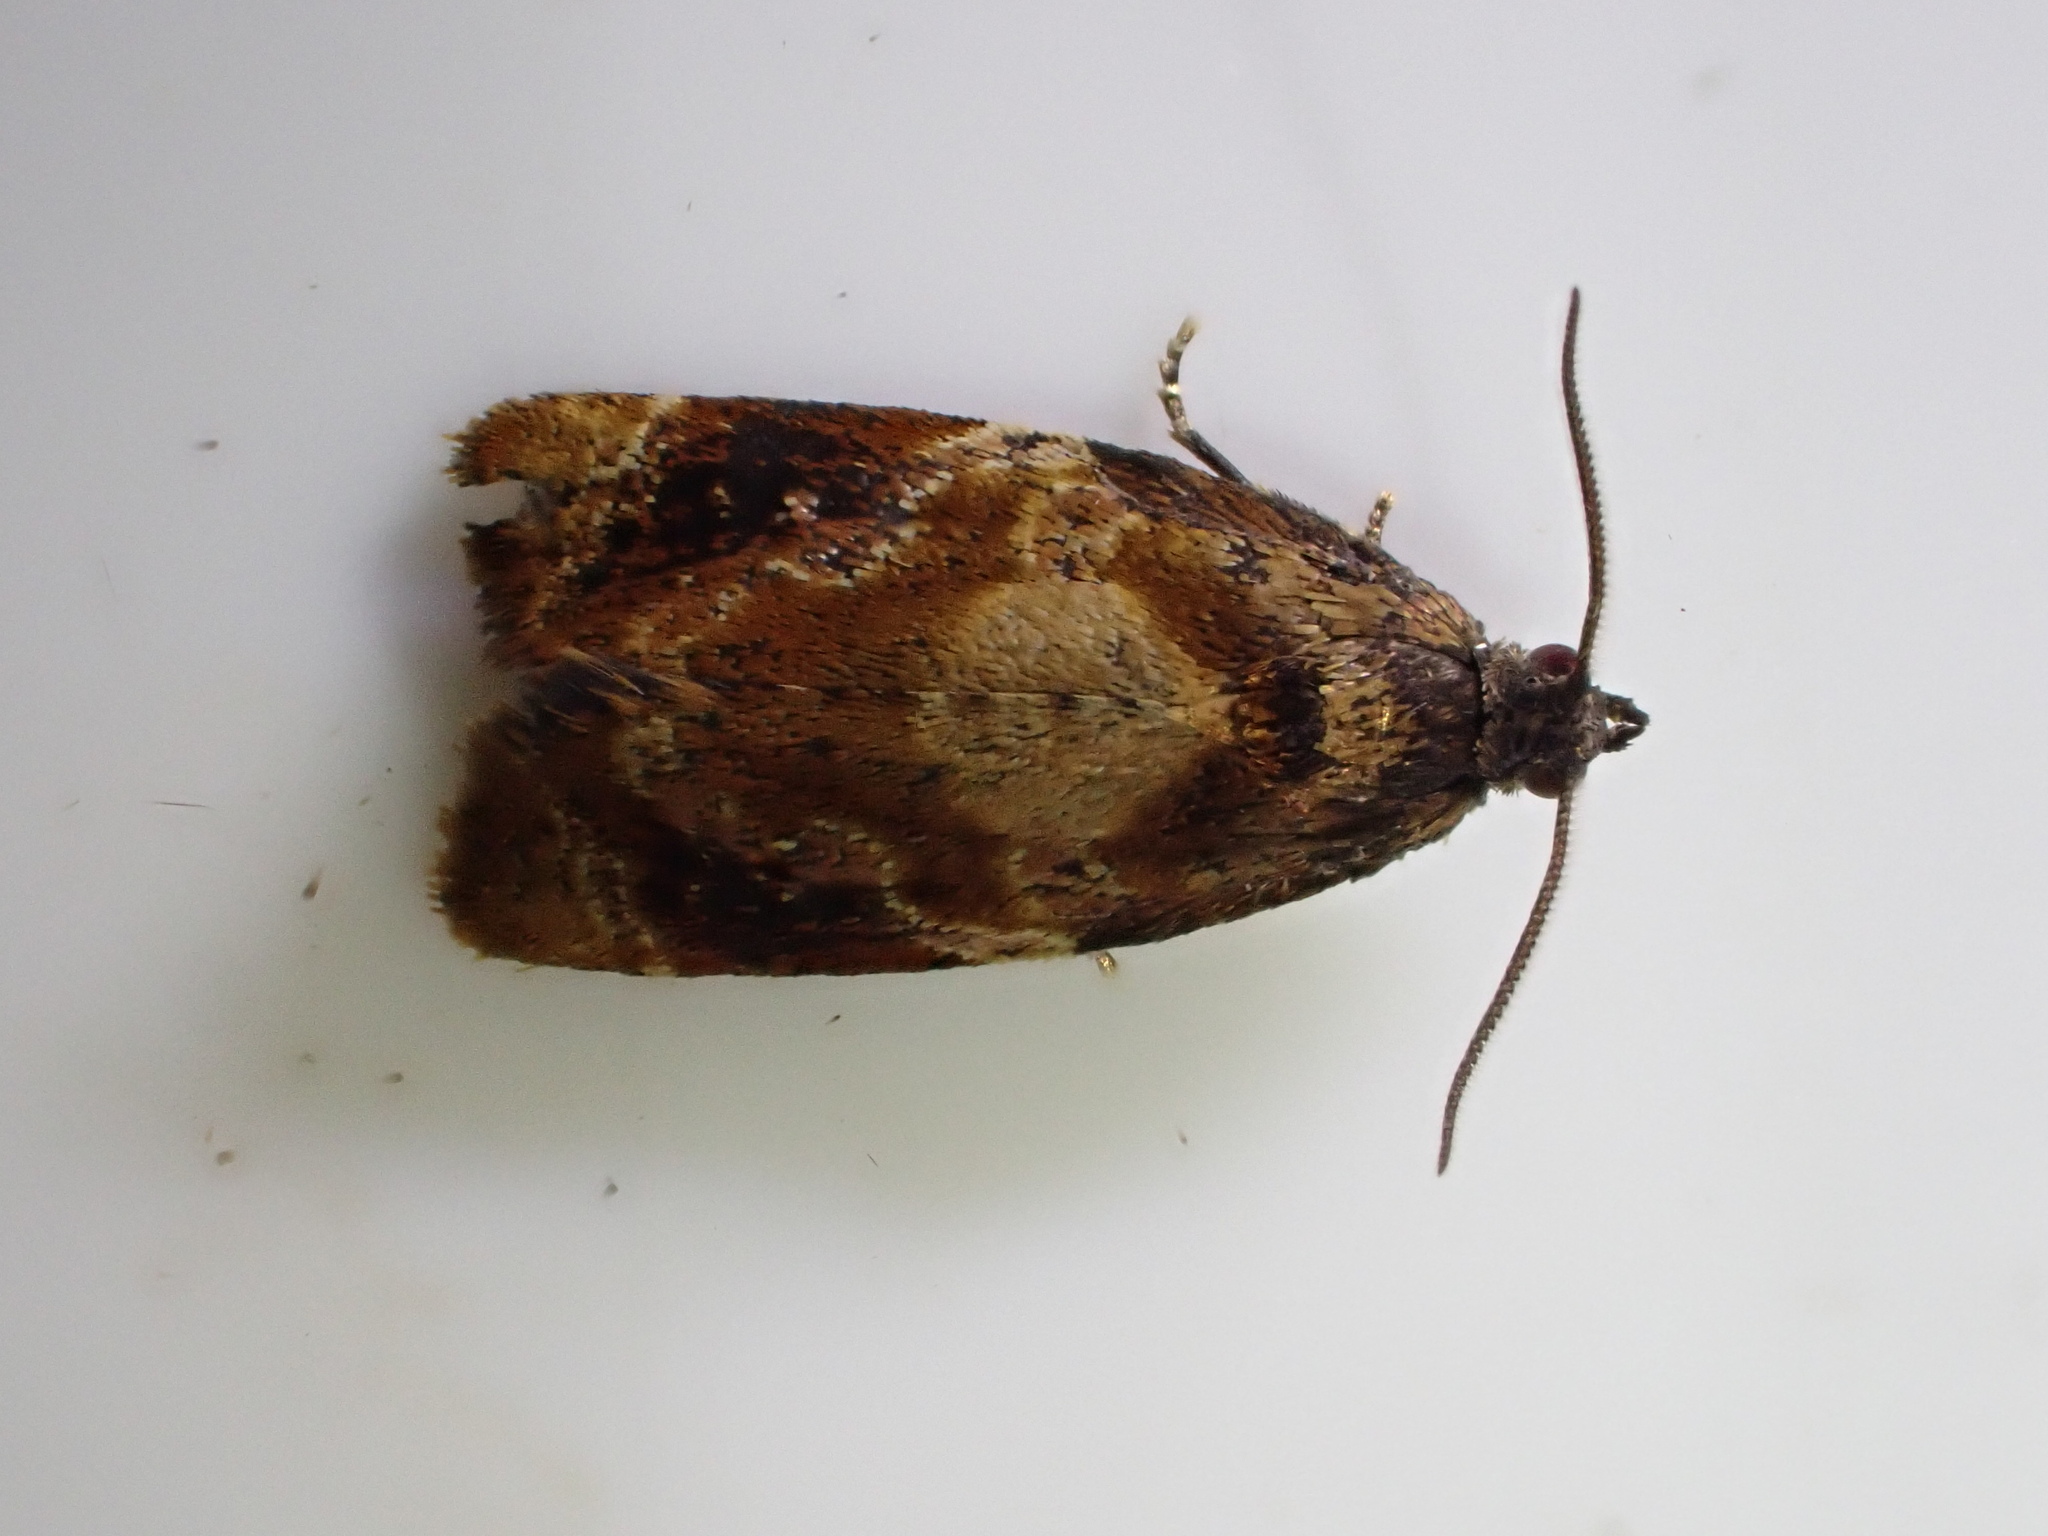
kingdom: Animalia
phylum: Arthropoda
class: Insecta
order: Lepidoptera
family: Tortricidae
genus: Ditula
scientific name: Ditula angustiorana
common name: Red-barred tortrix
